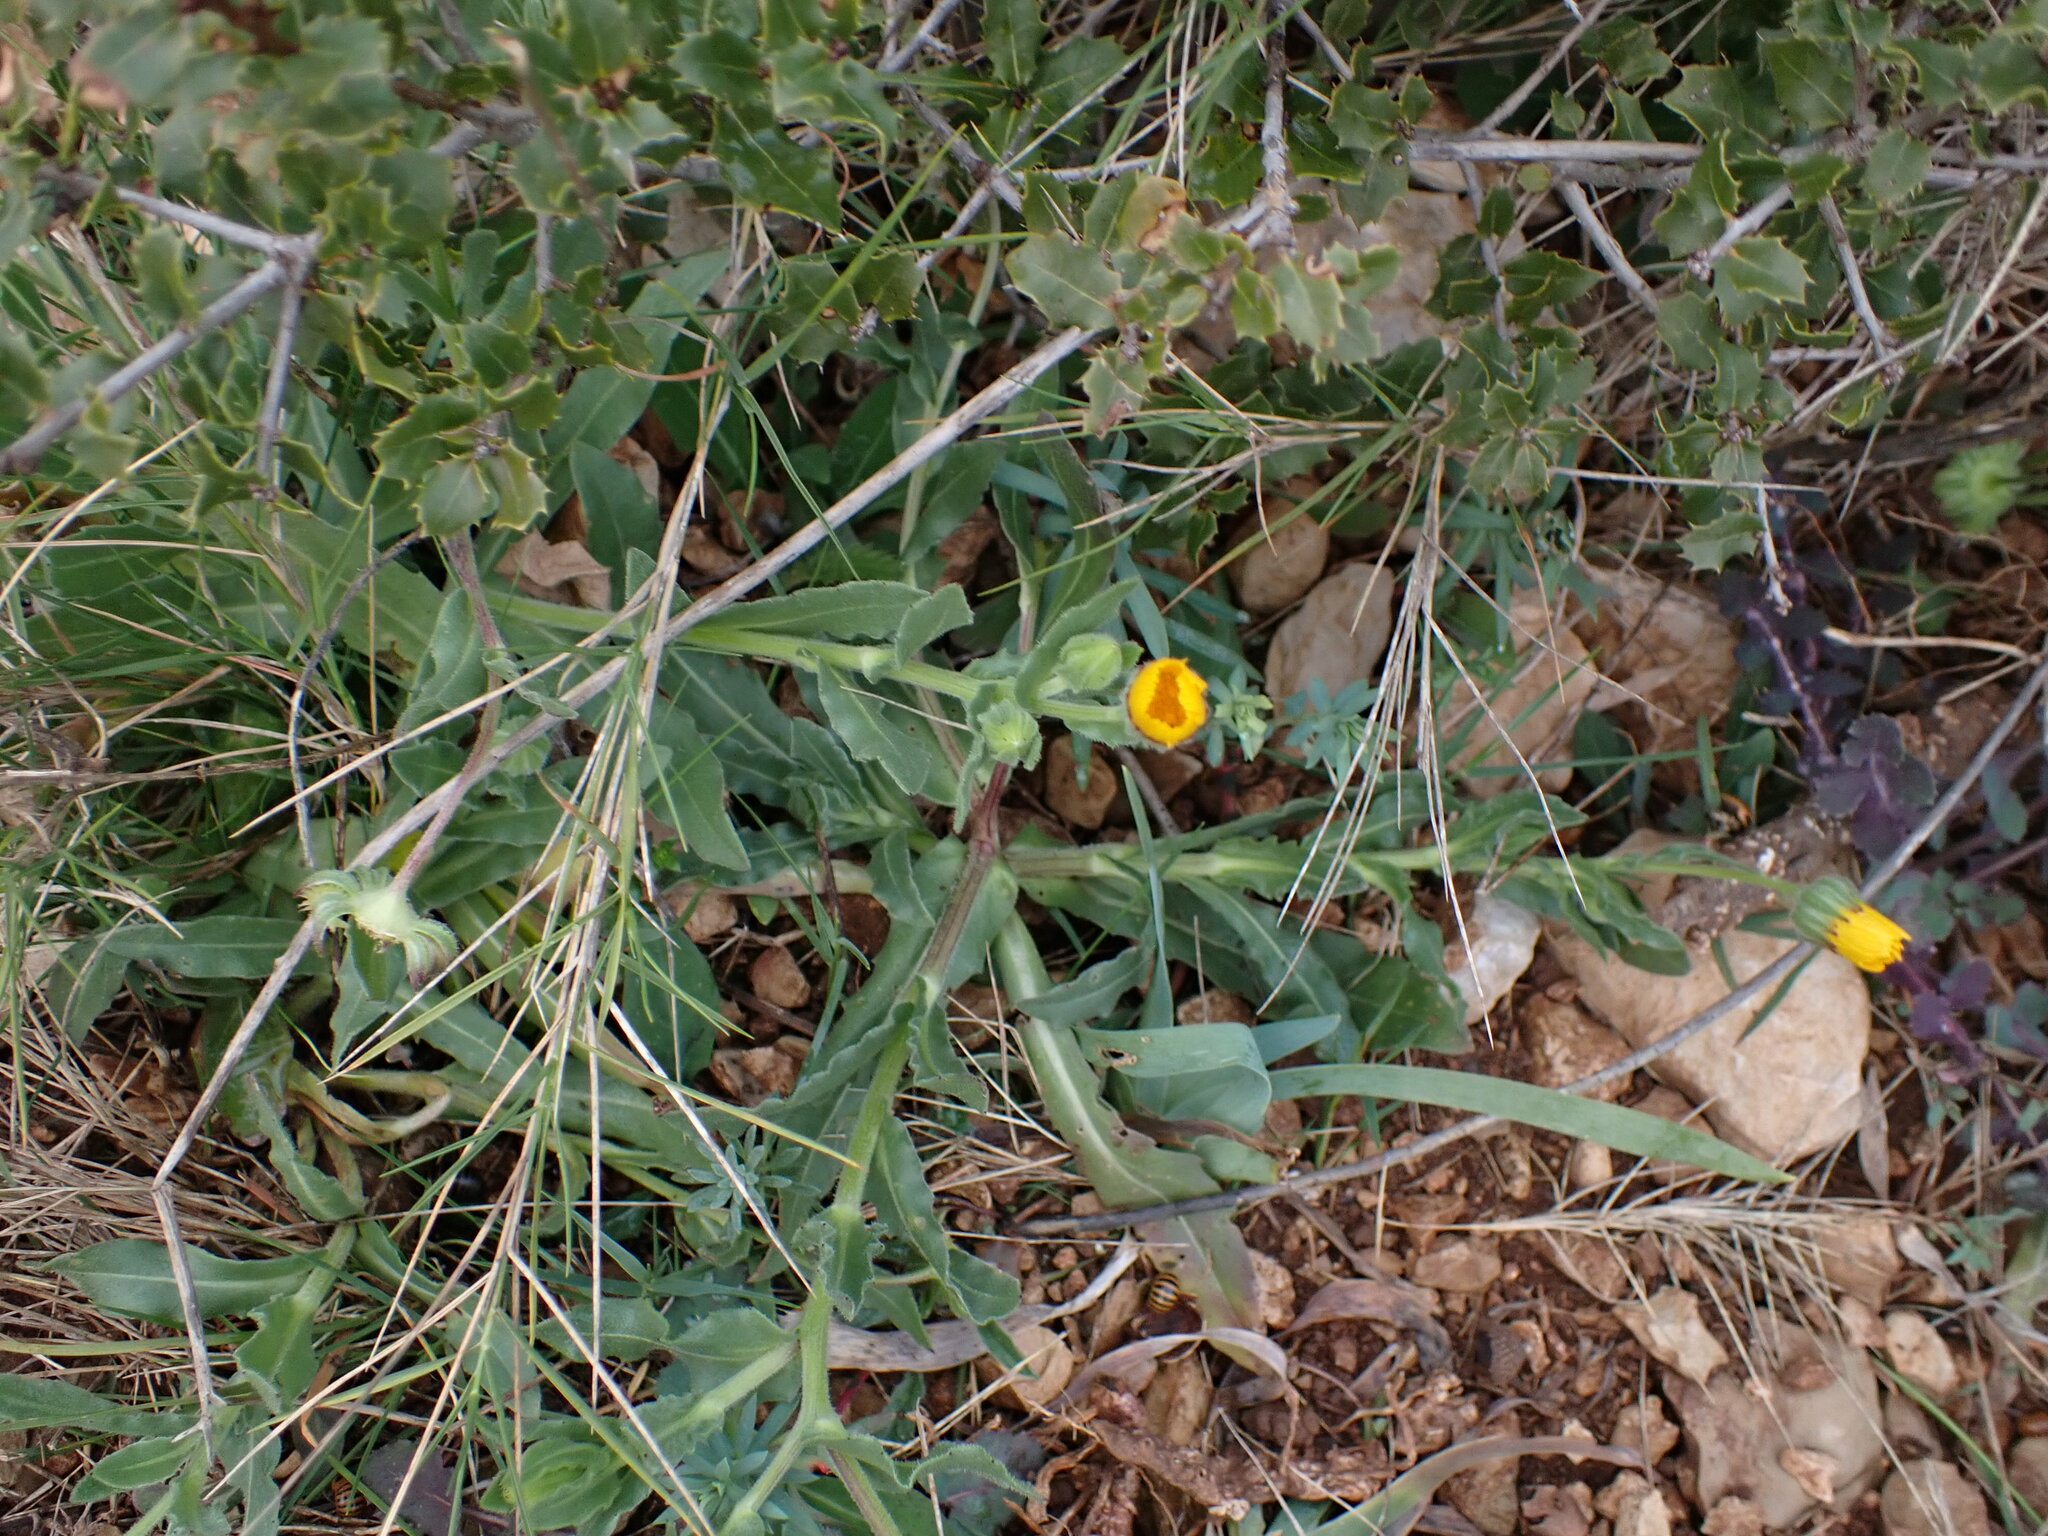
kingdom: Plantae
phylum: Tracheophyta
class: Magnoliopsida
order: Asterales
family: Asteraceae
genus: Calendula
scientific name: Calendula arvensis
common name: Field marigold
